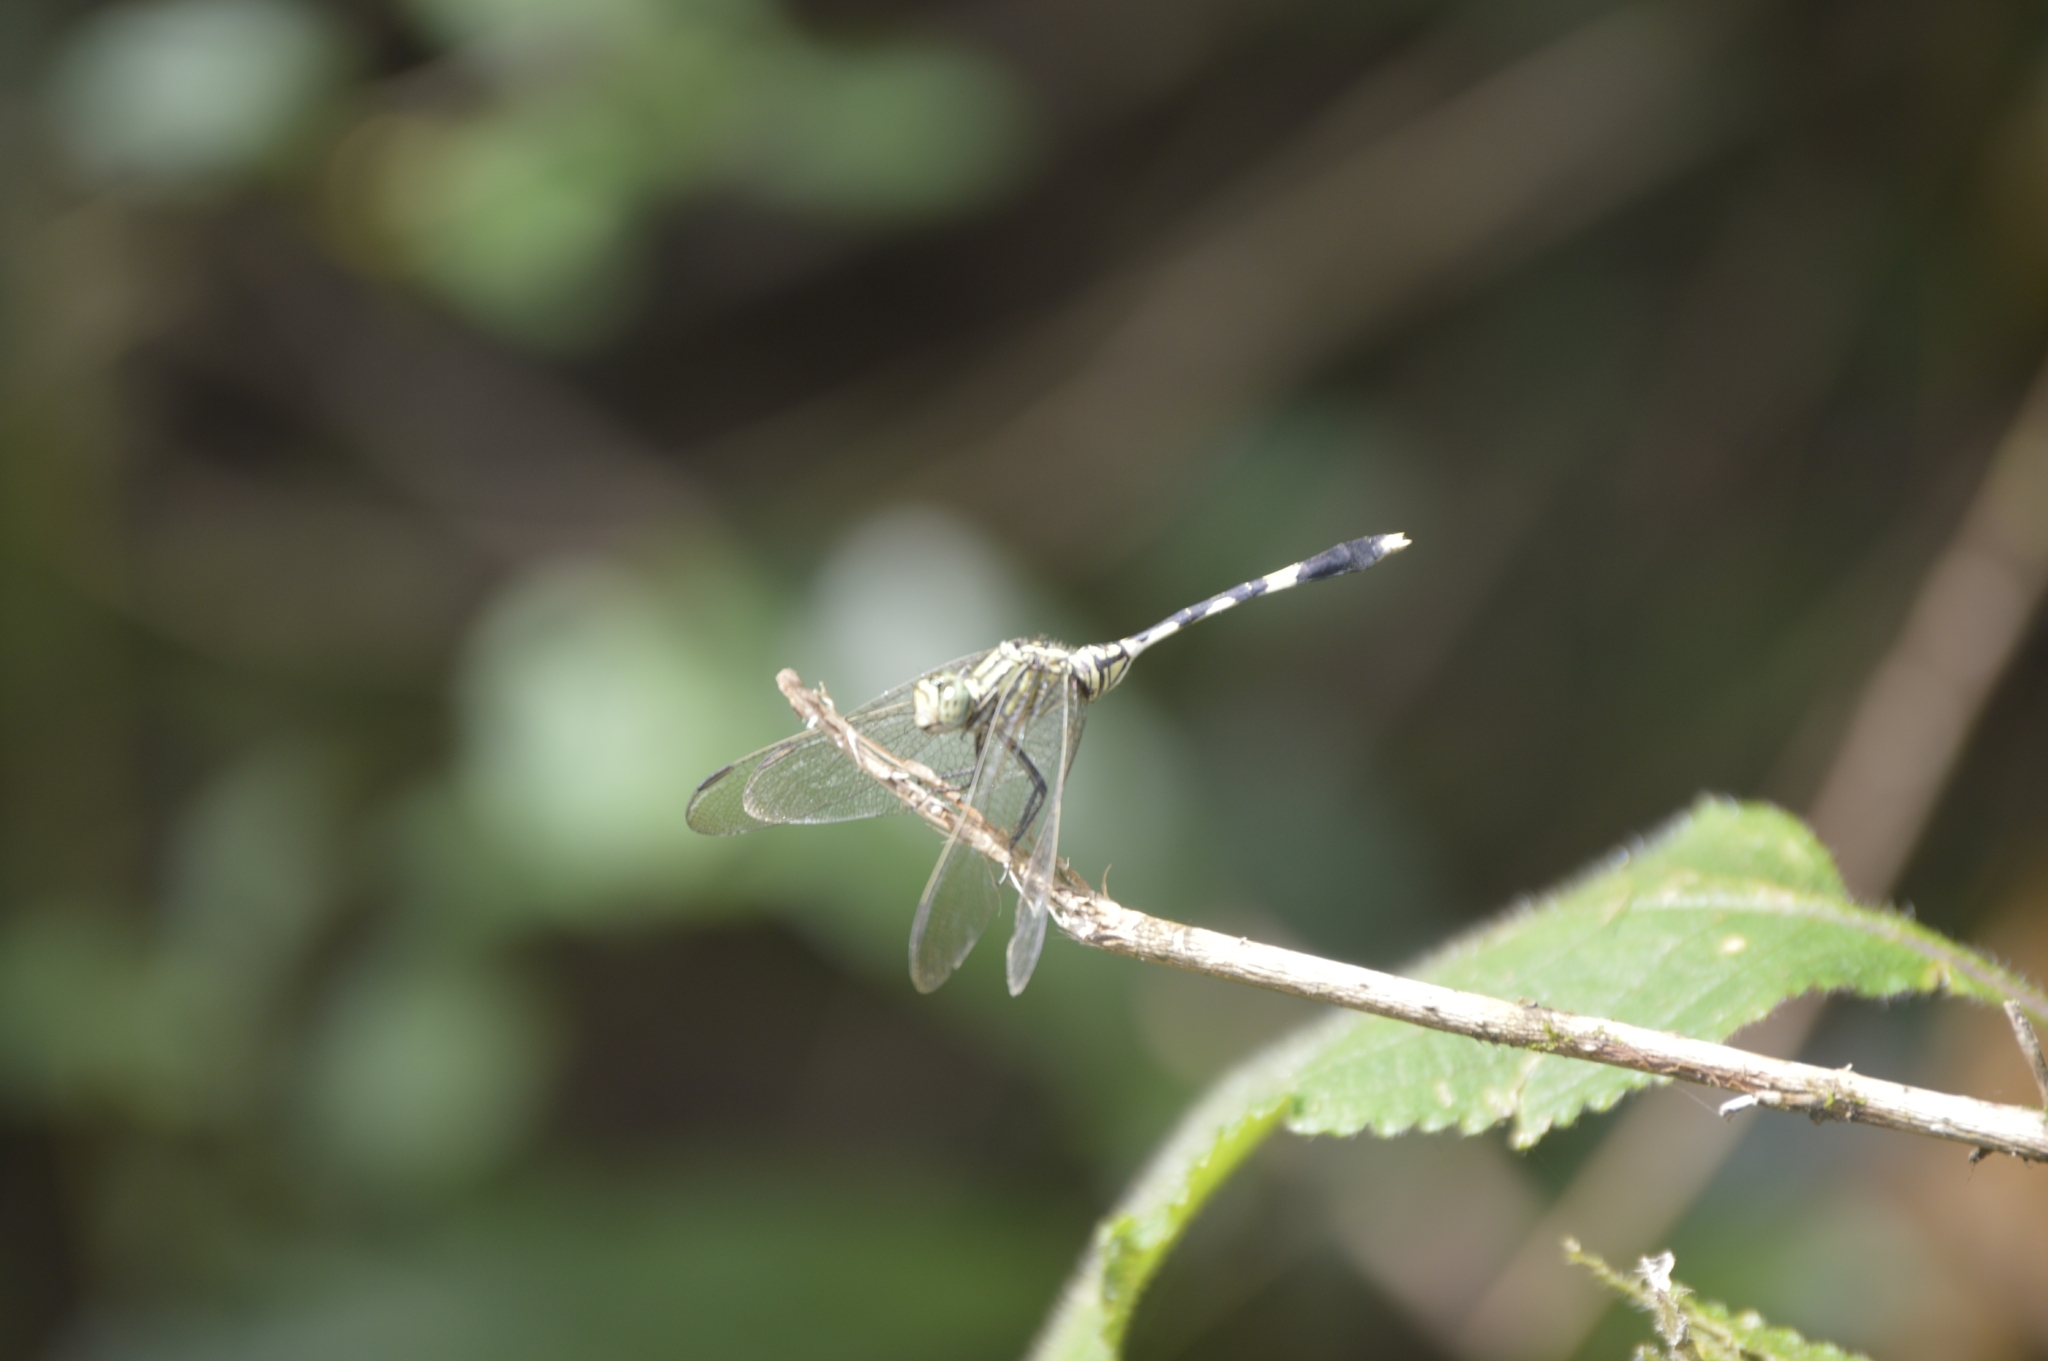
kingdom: Animalia
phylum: Arthropoda
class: Insecta
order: Odonata
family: Libellulidae
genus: Orthetrum
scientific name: Orthetrum sabina
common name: Slender skimmer
